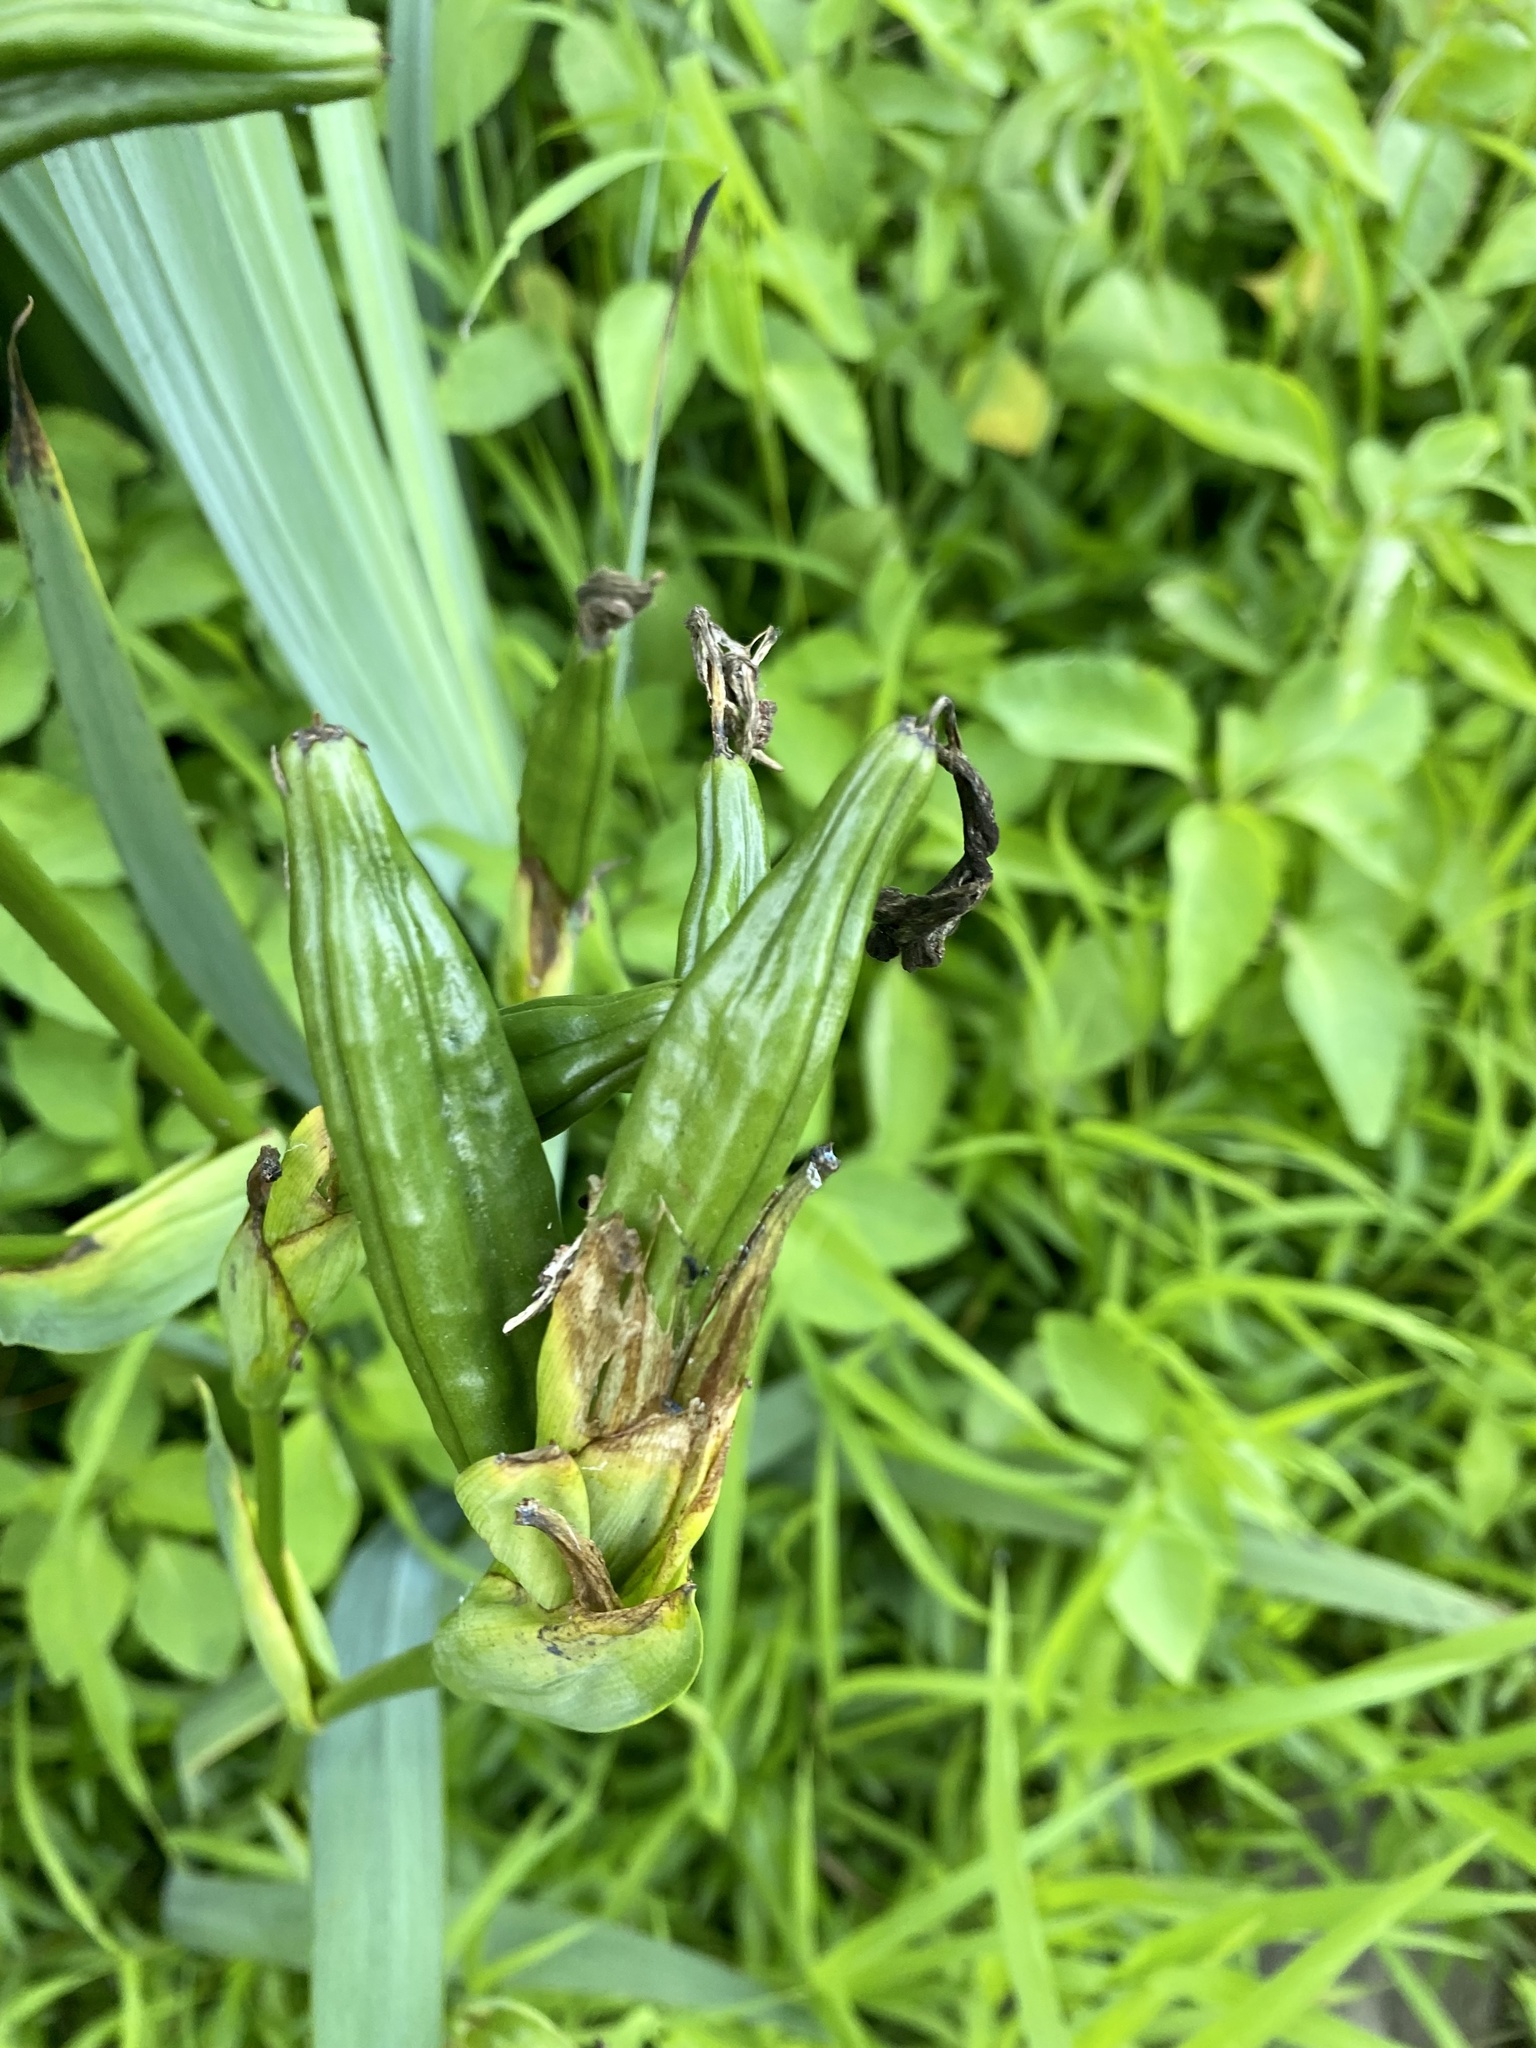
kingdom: Plantae
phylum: Tracheophyta
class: Liliopsida
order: Asparagales
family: Iridaceae
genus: Iris
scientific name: Iris pseudacorus
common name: Yellow flag
